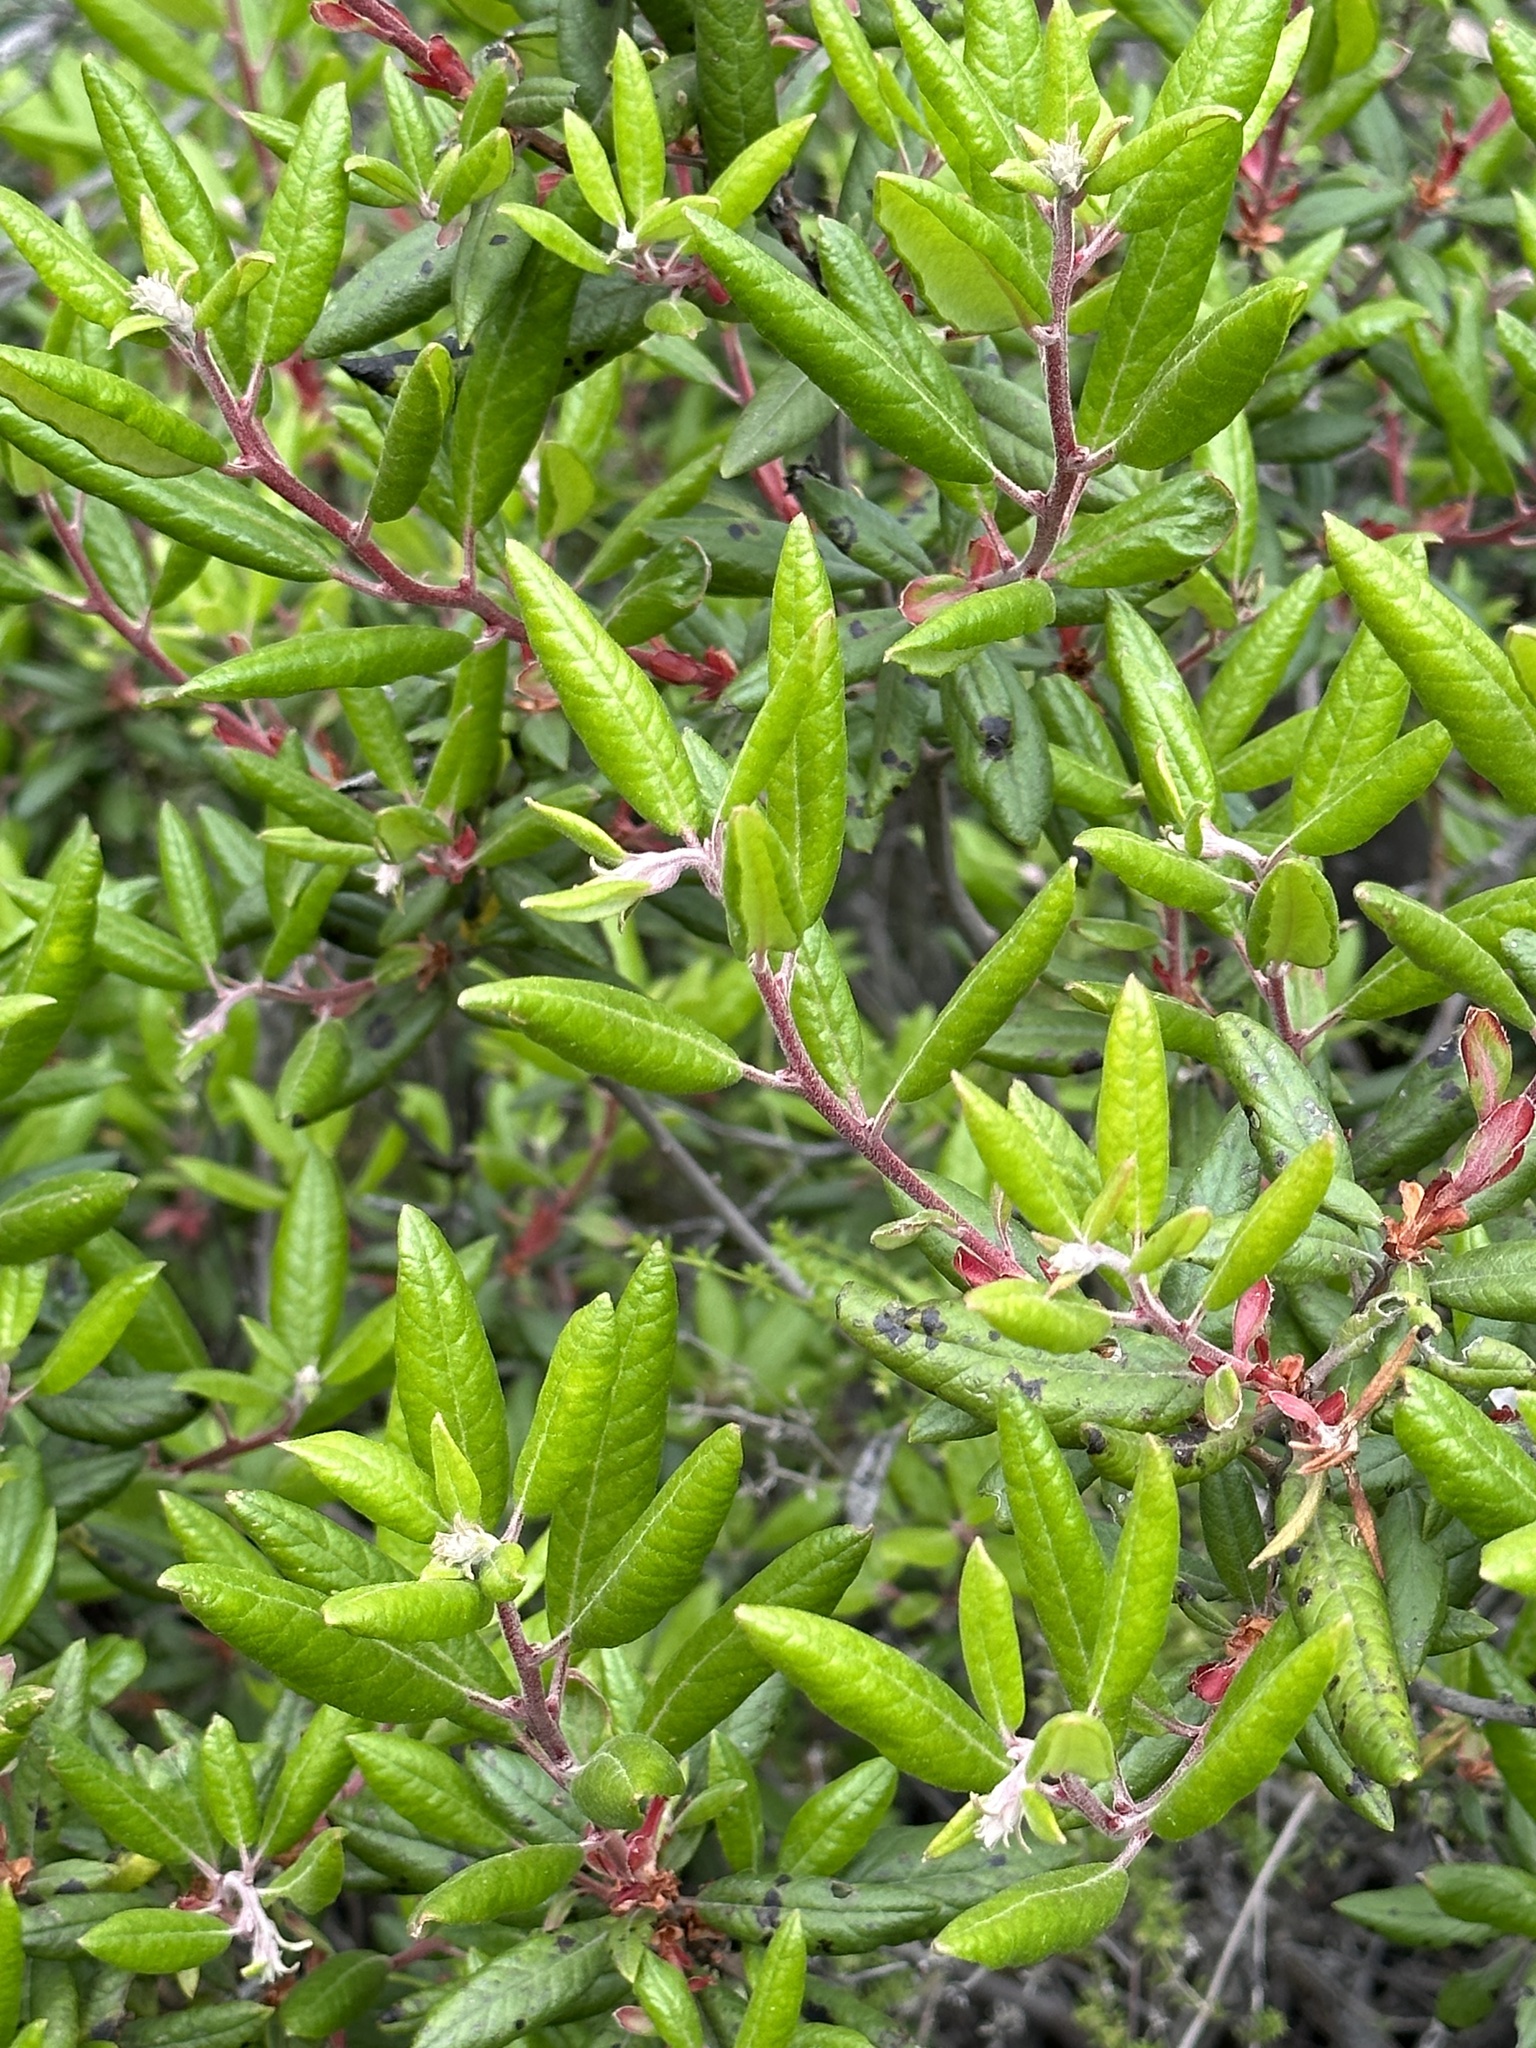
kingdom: Plantae
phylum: Tracheophyta
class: Magnoliopsida
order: Ericales
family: Ericaceae
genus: Arctostaphylos
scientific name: Arctostaphylos bicolor
